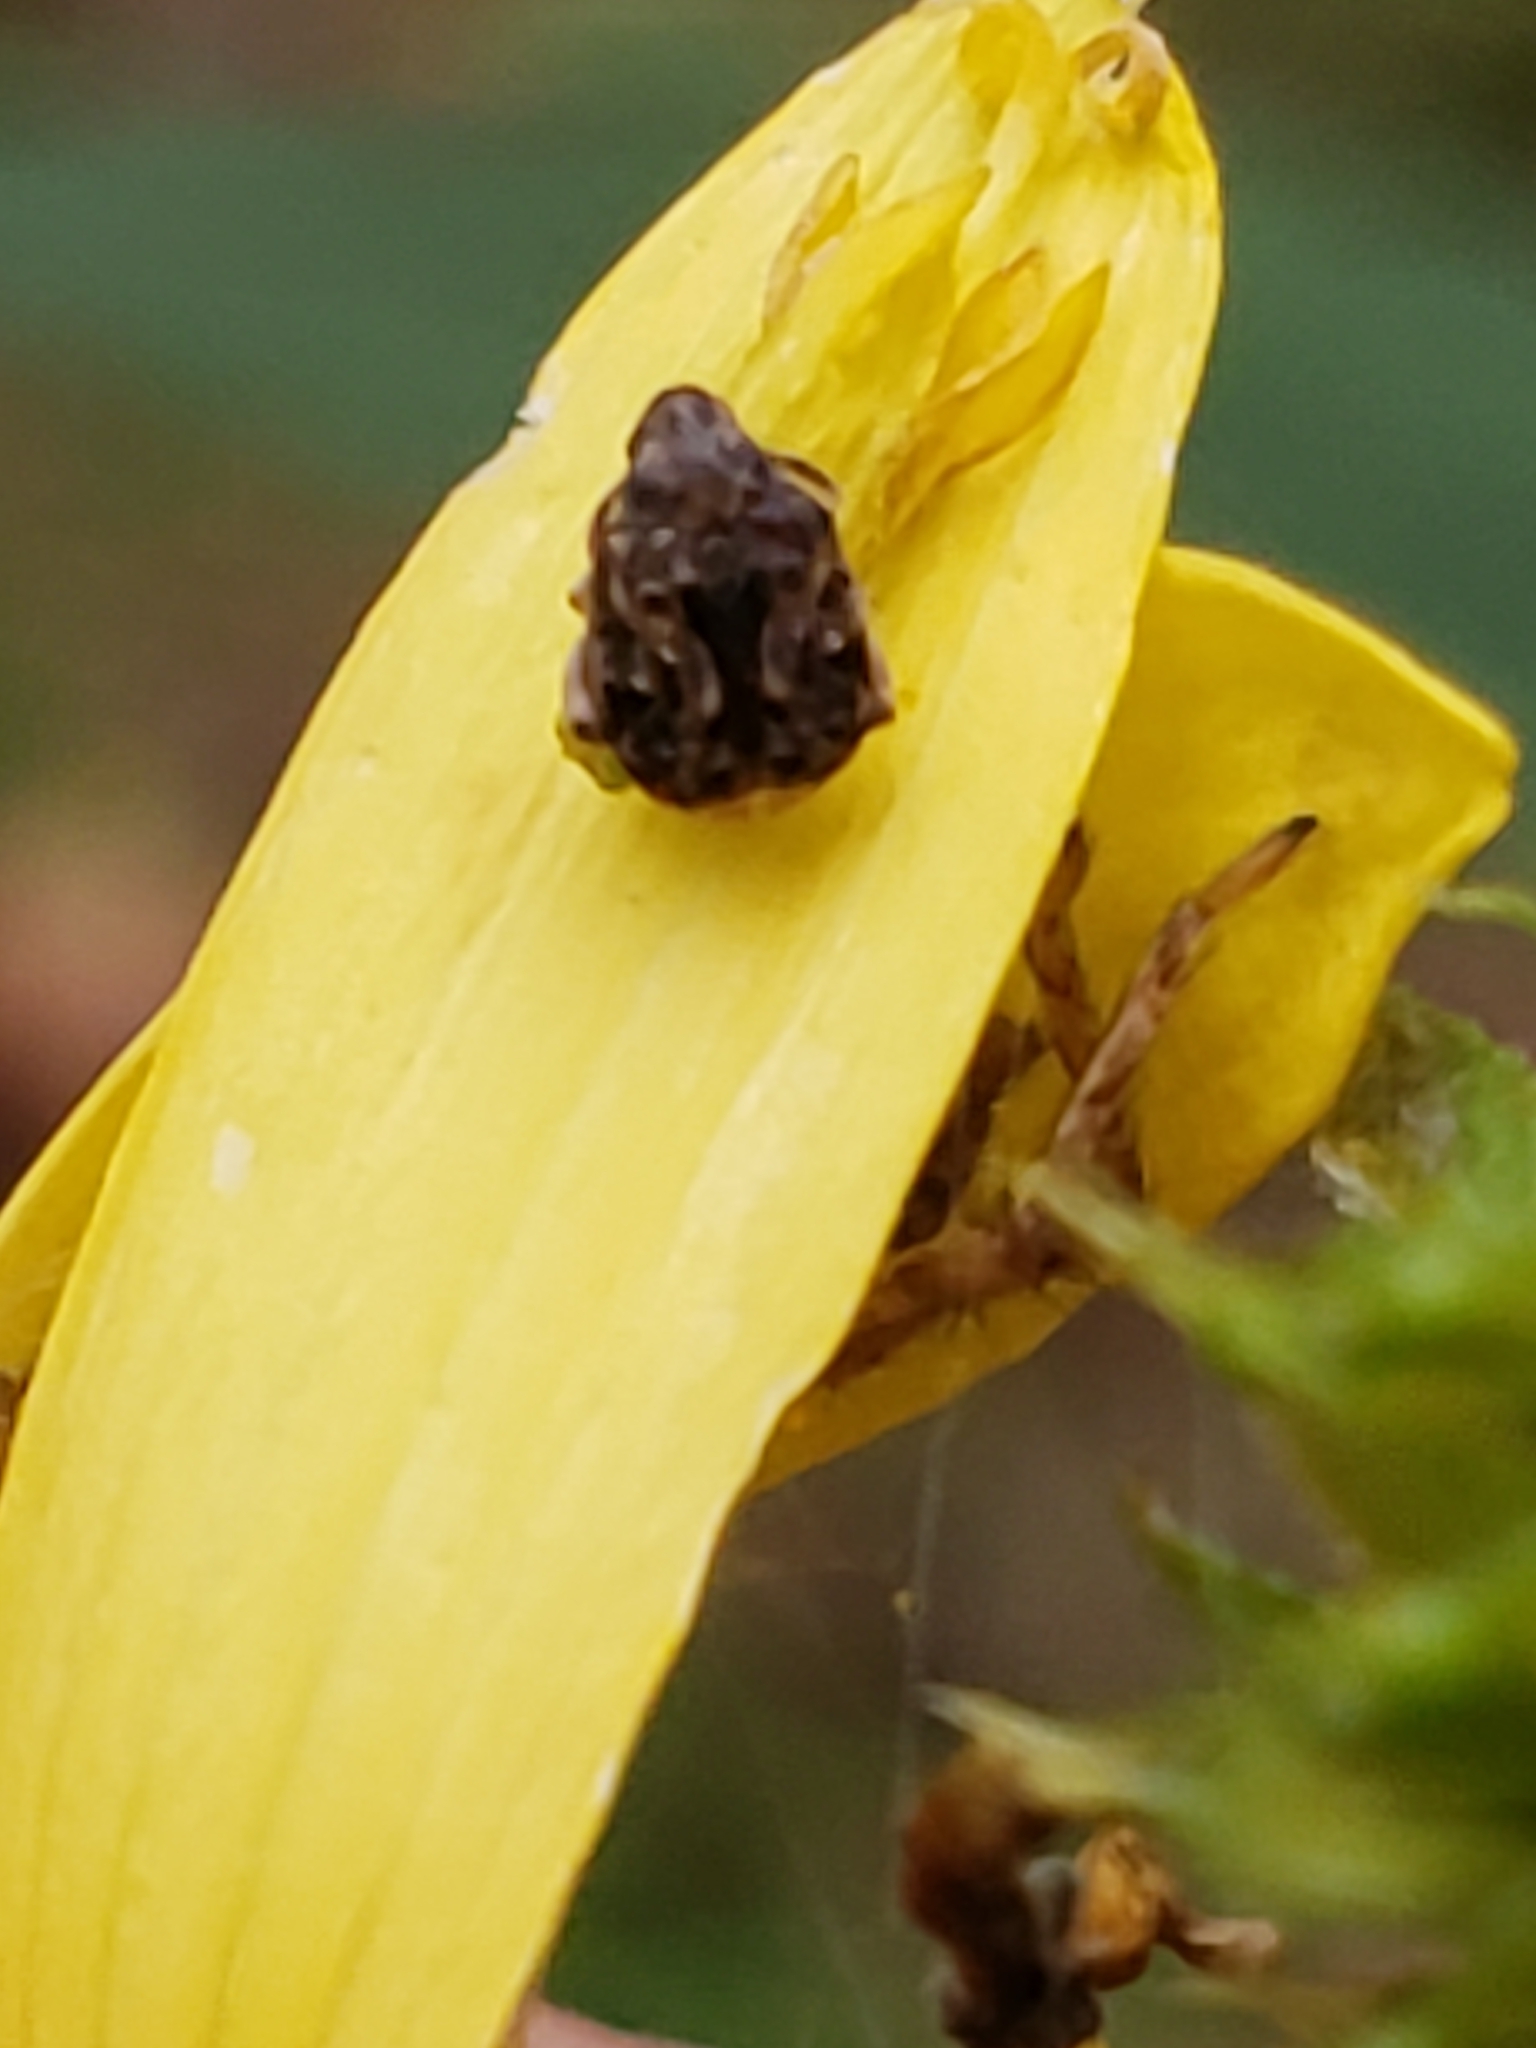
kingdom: Animalia
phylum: Arthropoda
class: Insecta
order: Coleoptera
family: Chrysomelidae
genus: Gibbobruchus
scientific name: Gibbobruchus mimus
